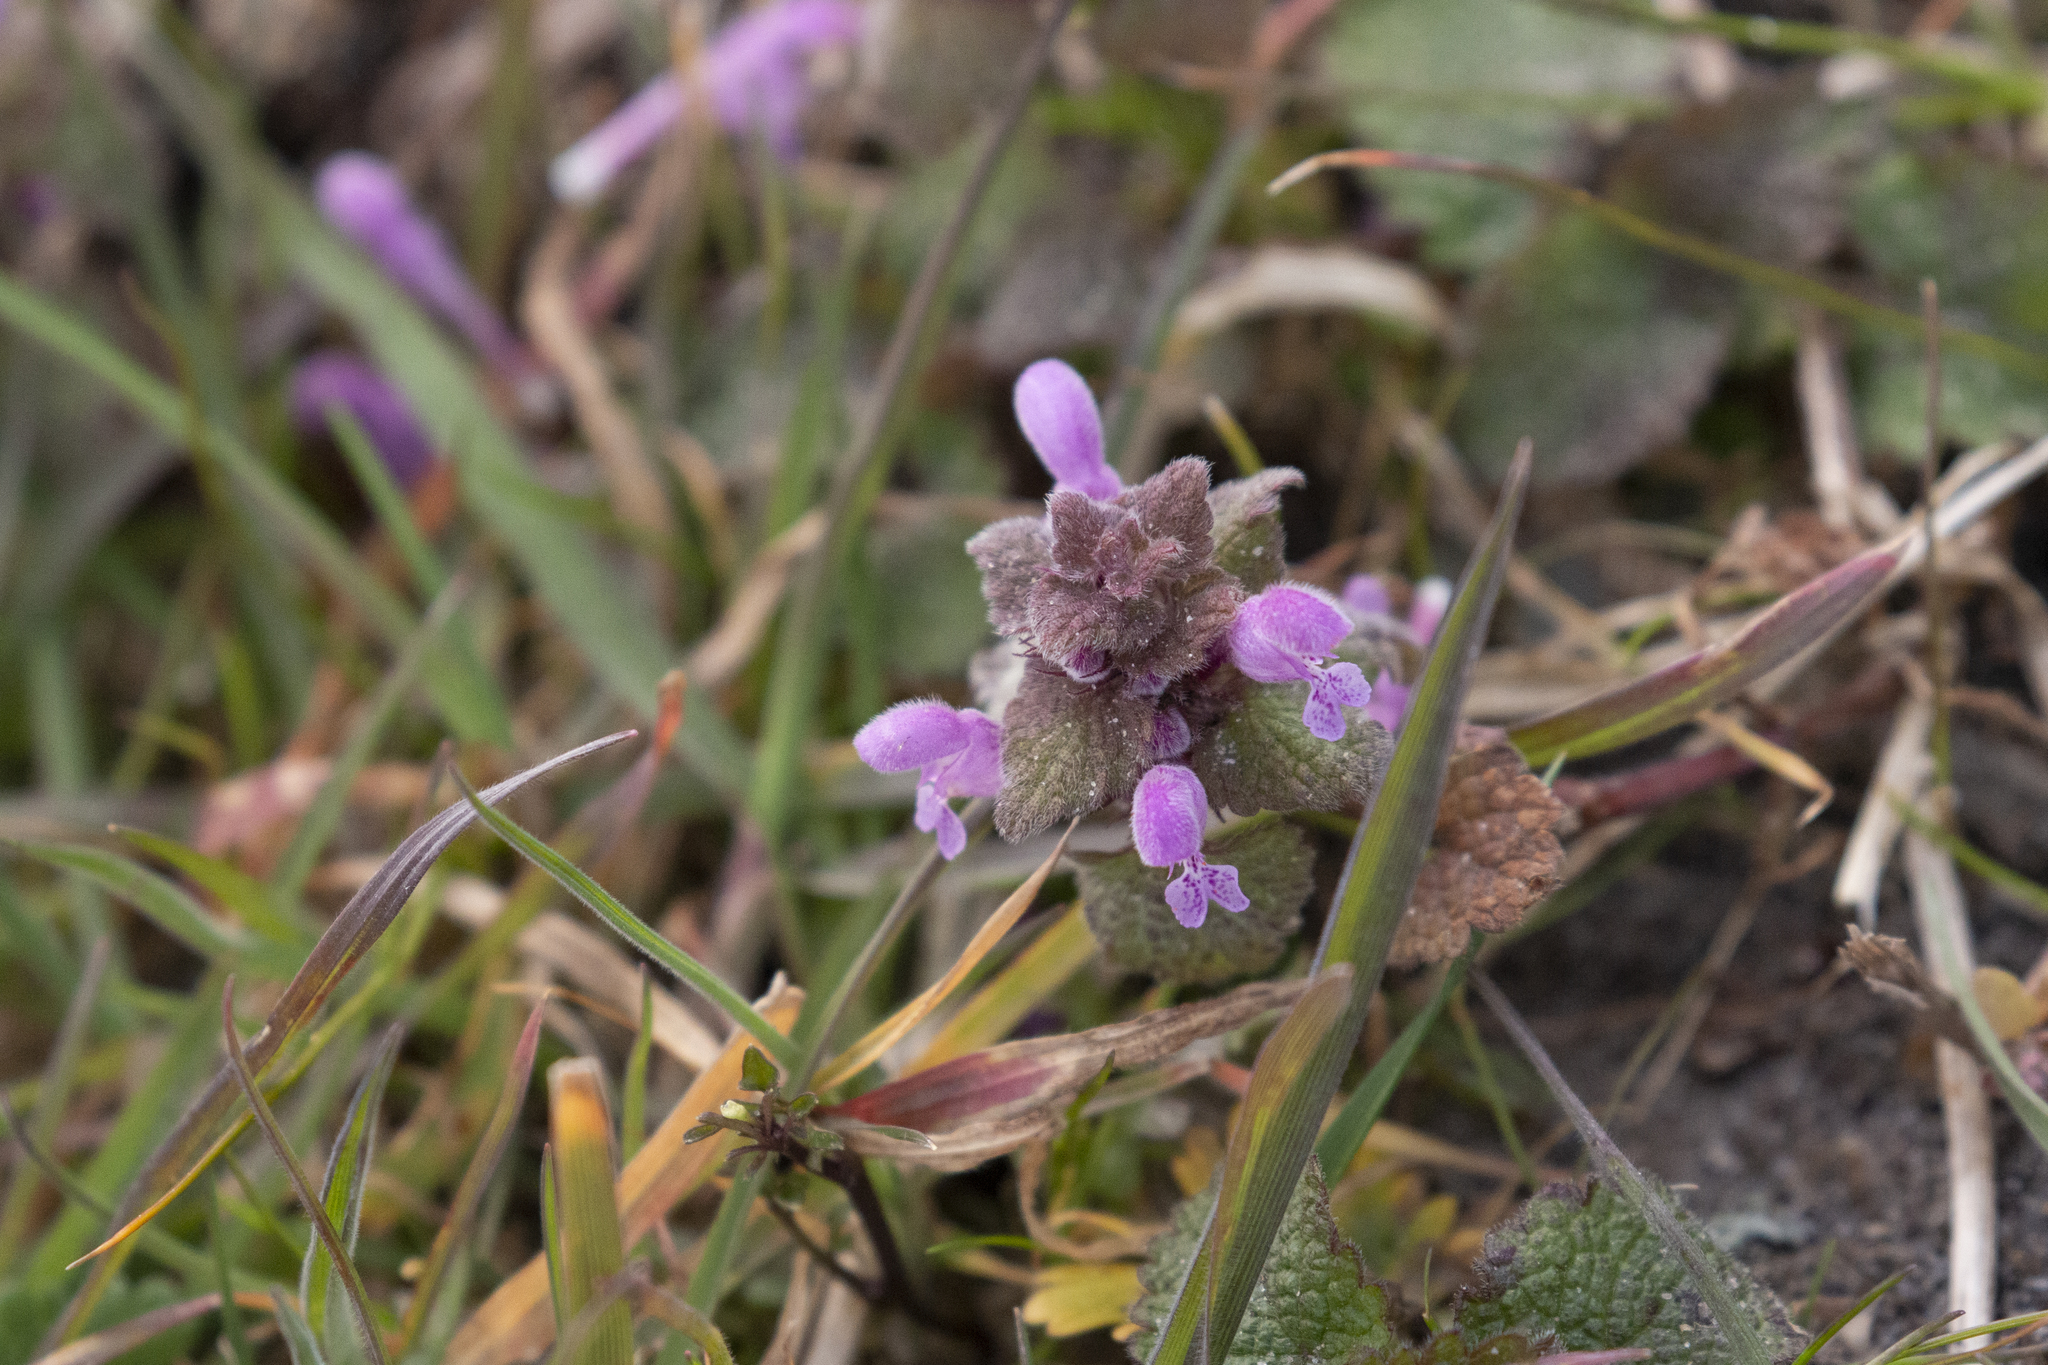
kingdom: Plantae
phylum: Tracheophyta
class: Magnoliopsida
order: Lamiales
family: Lamiaceae
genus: Lamium
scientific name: Lamium purpureum
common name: Red dead-nettle
